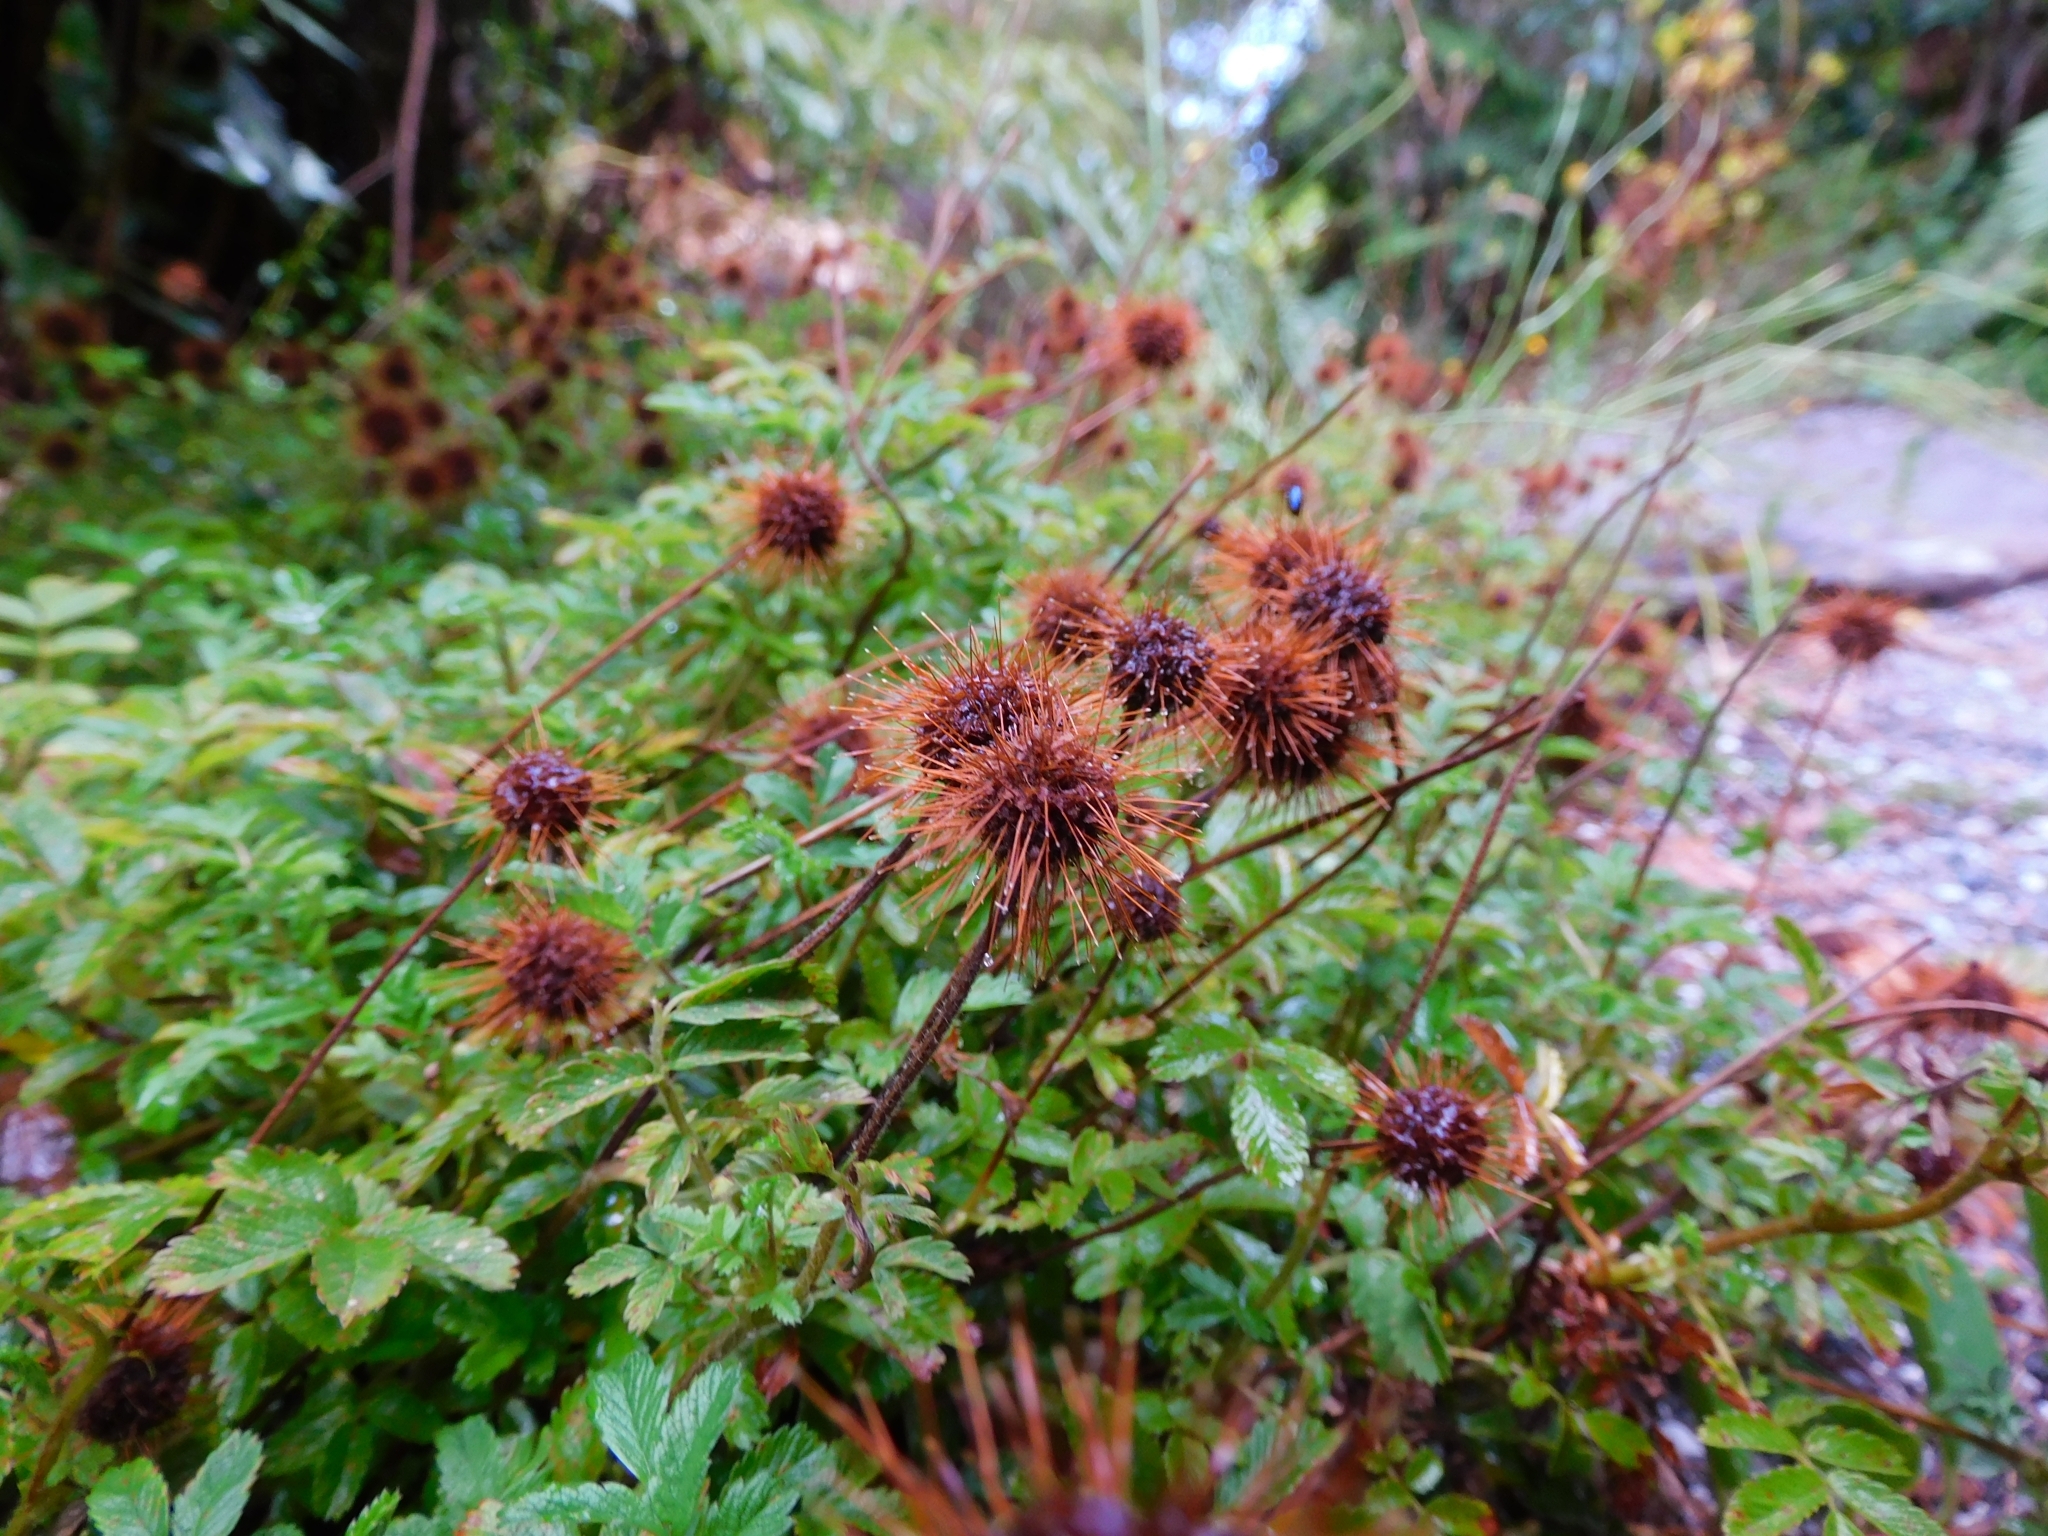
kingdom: Plantae
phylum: Tracheophyta
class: Magnoliopsida
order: Rosales
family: Rosaceae
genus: Acaena
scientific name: Acaena ovalifolia
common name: Two-spined acaena
